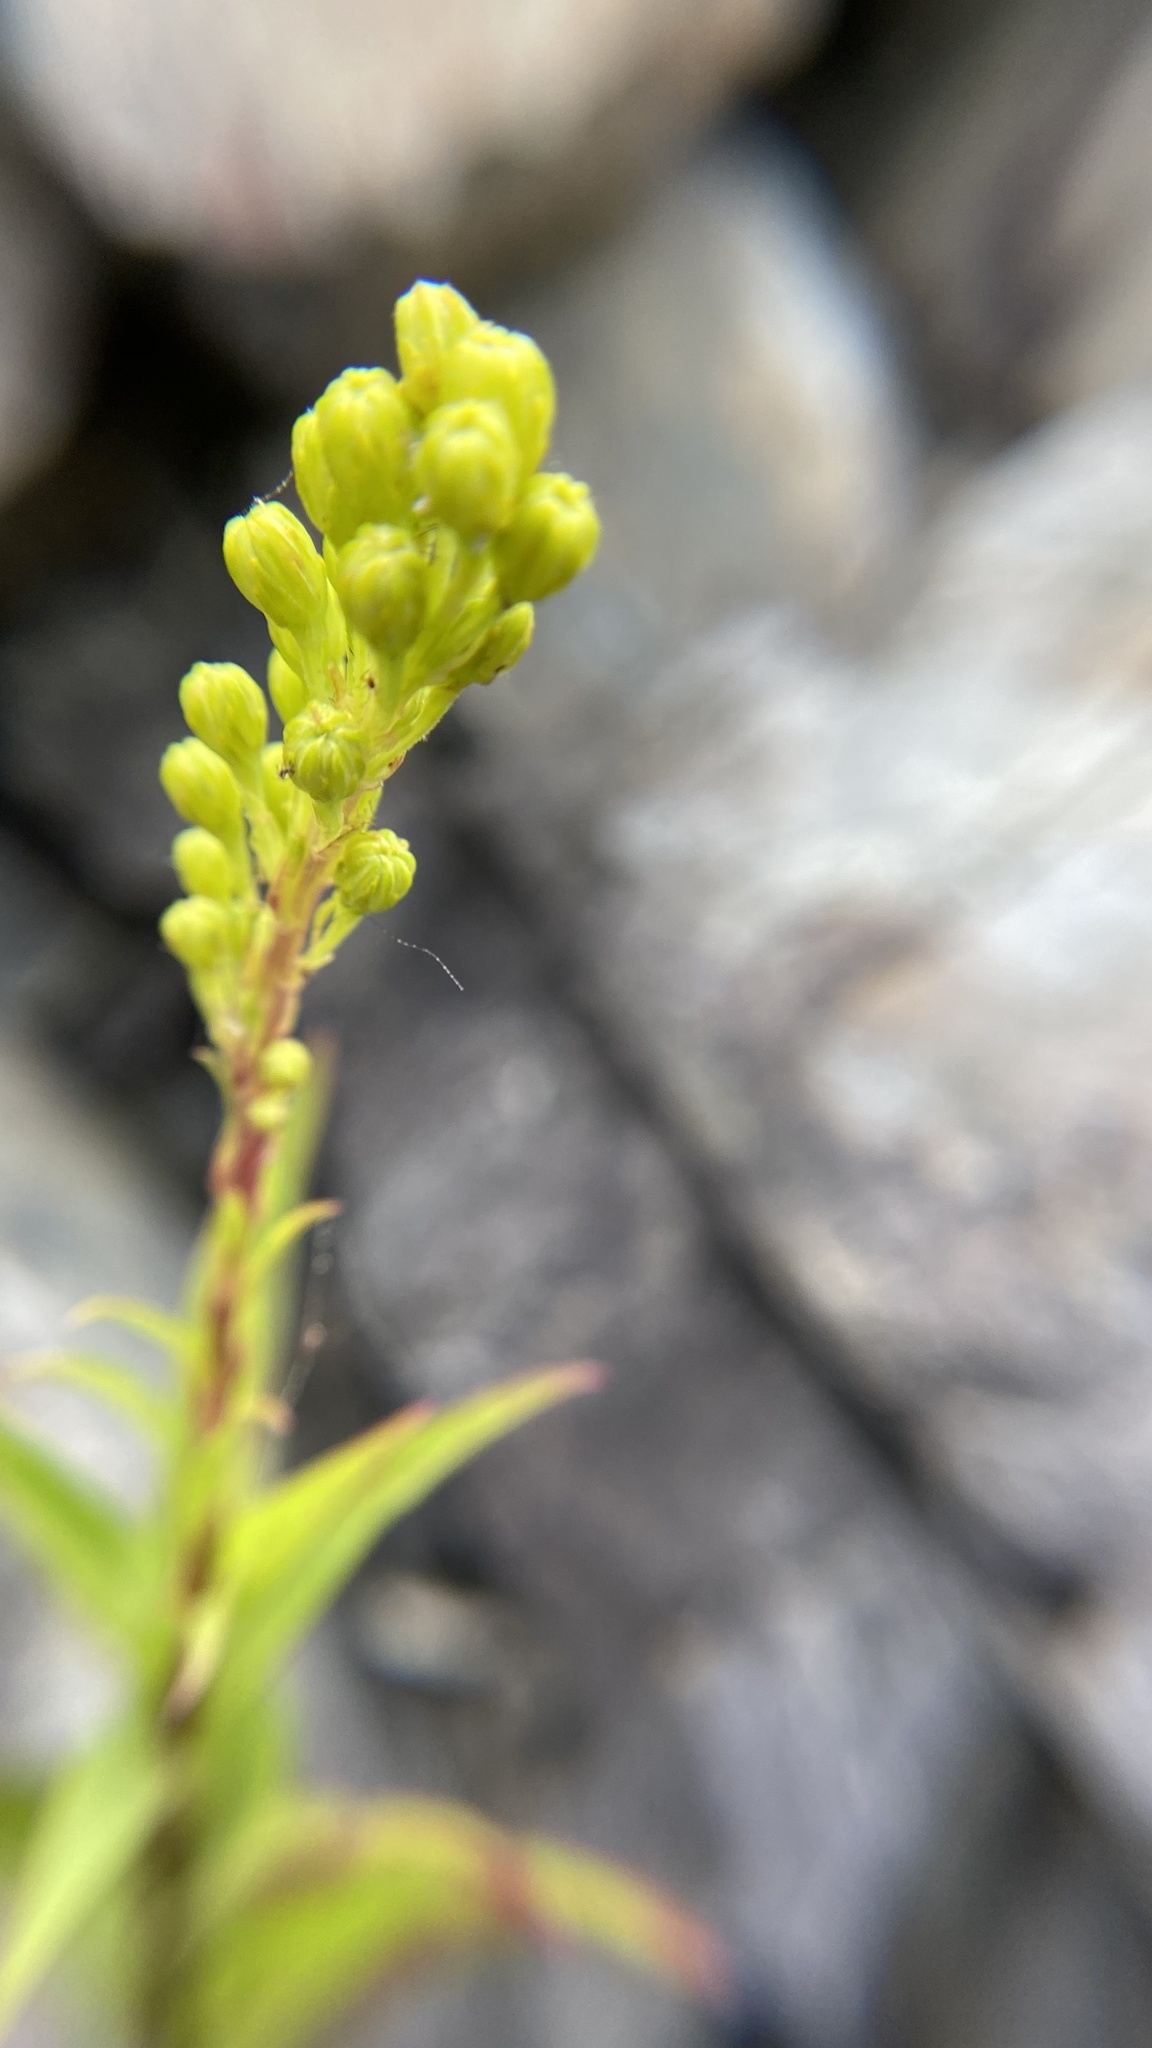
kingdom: Plantae
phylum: Tracheophyta
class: Magnoliopsida
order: Asterales
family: Asteraceae
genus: Solidago
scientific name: Solidago sempervirens
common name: Salt-marsh goldenrod
